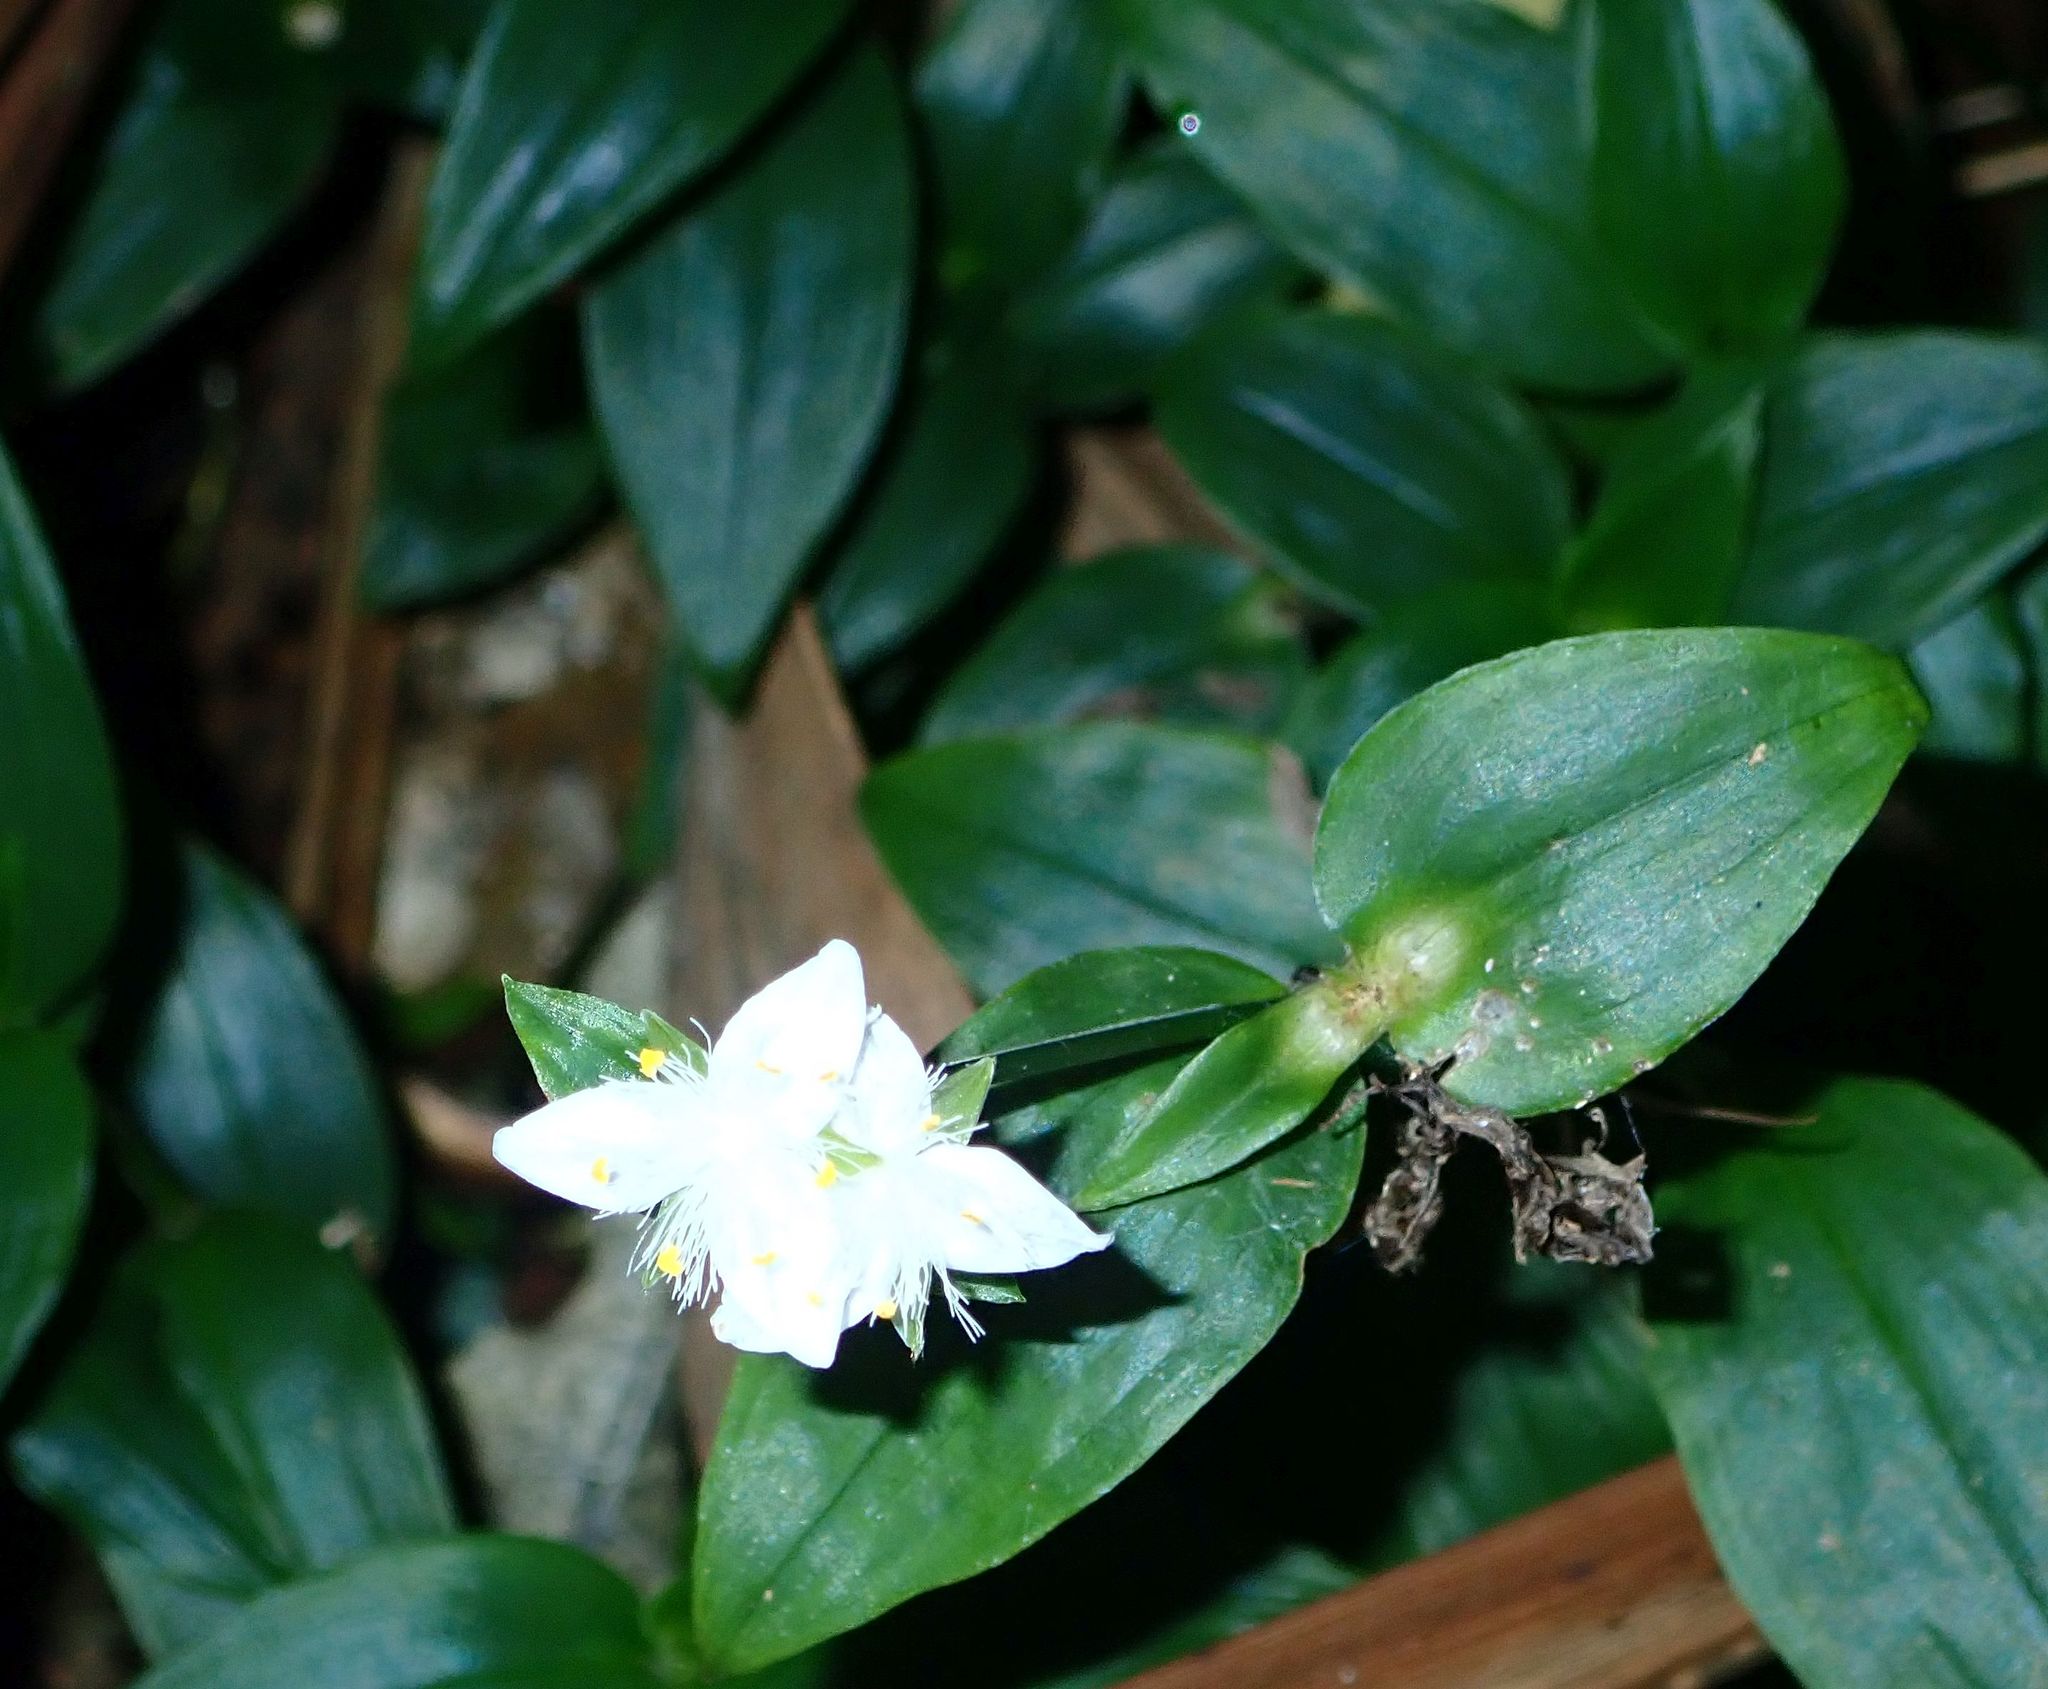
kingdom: Plantae
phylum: Tracheophyta
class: Liliopsida
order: Commelinales
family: Commelinaceae
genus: Tradescantia
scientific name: Tradescantia fluminensis
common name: Wandering-jew
